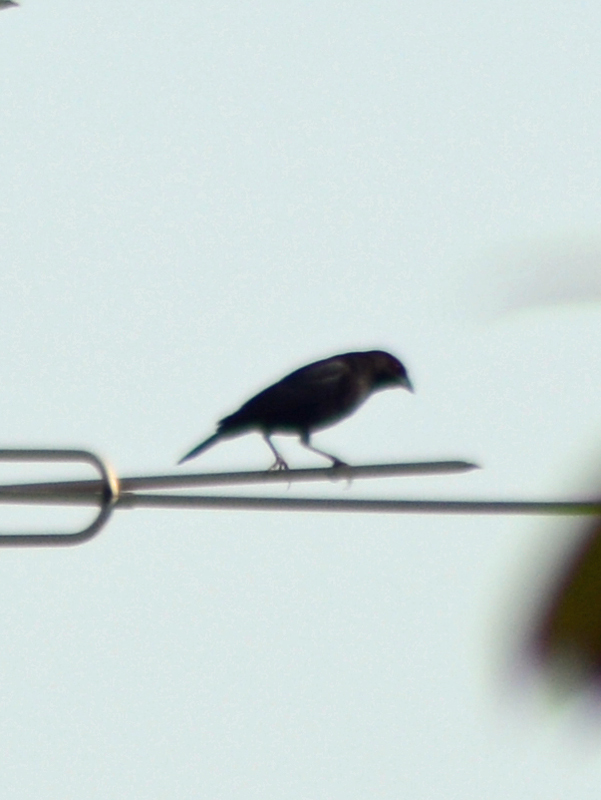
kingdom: Animalia
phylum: Chordata
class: Aves
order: Passeriformes
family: Icteridae
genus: Molothrus
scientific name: Molothrus aeneus
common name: Bronzed cowbird
